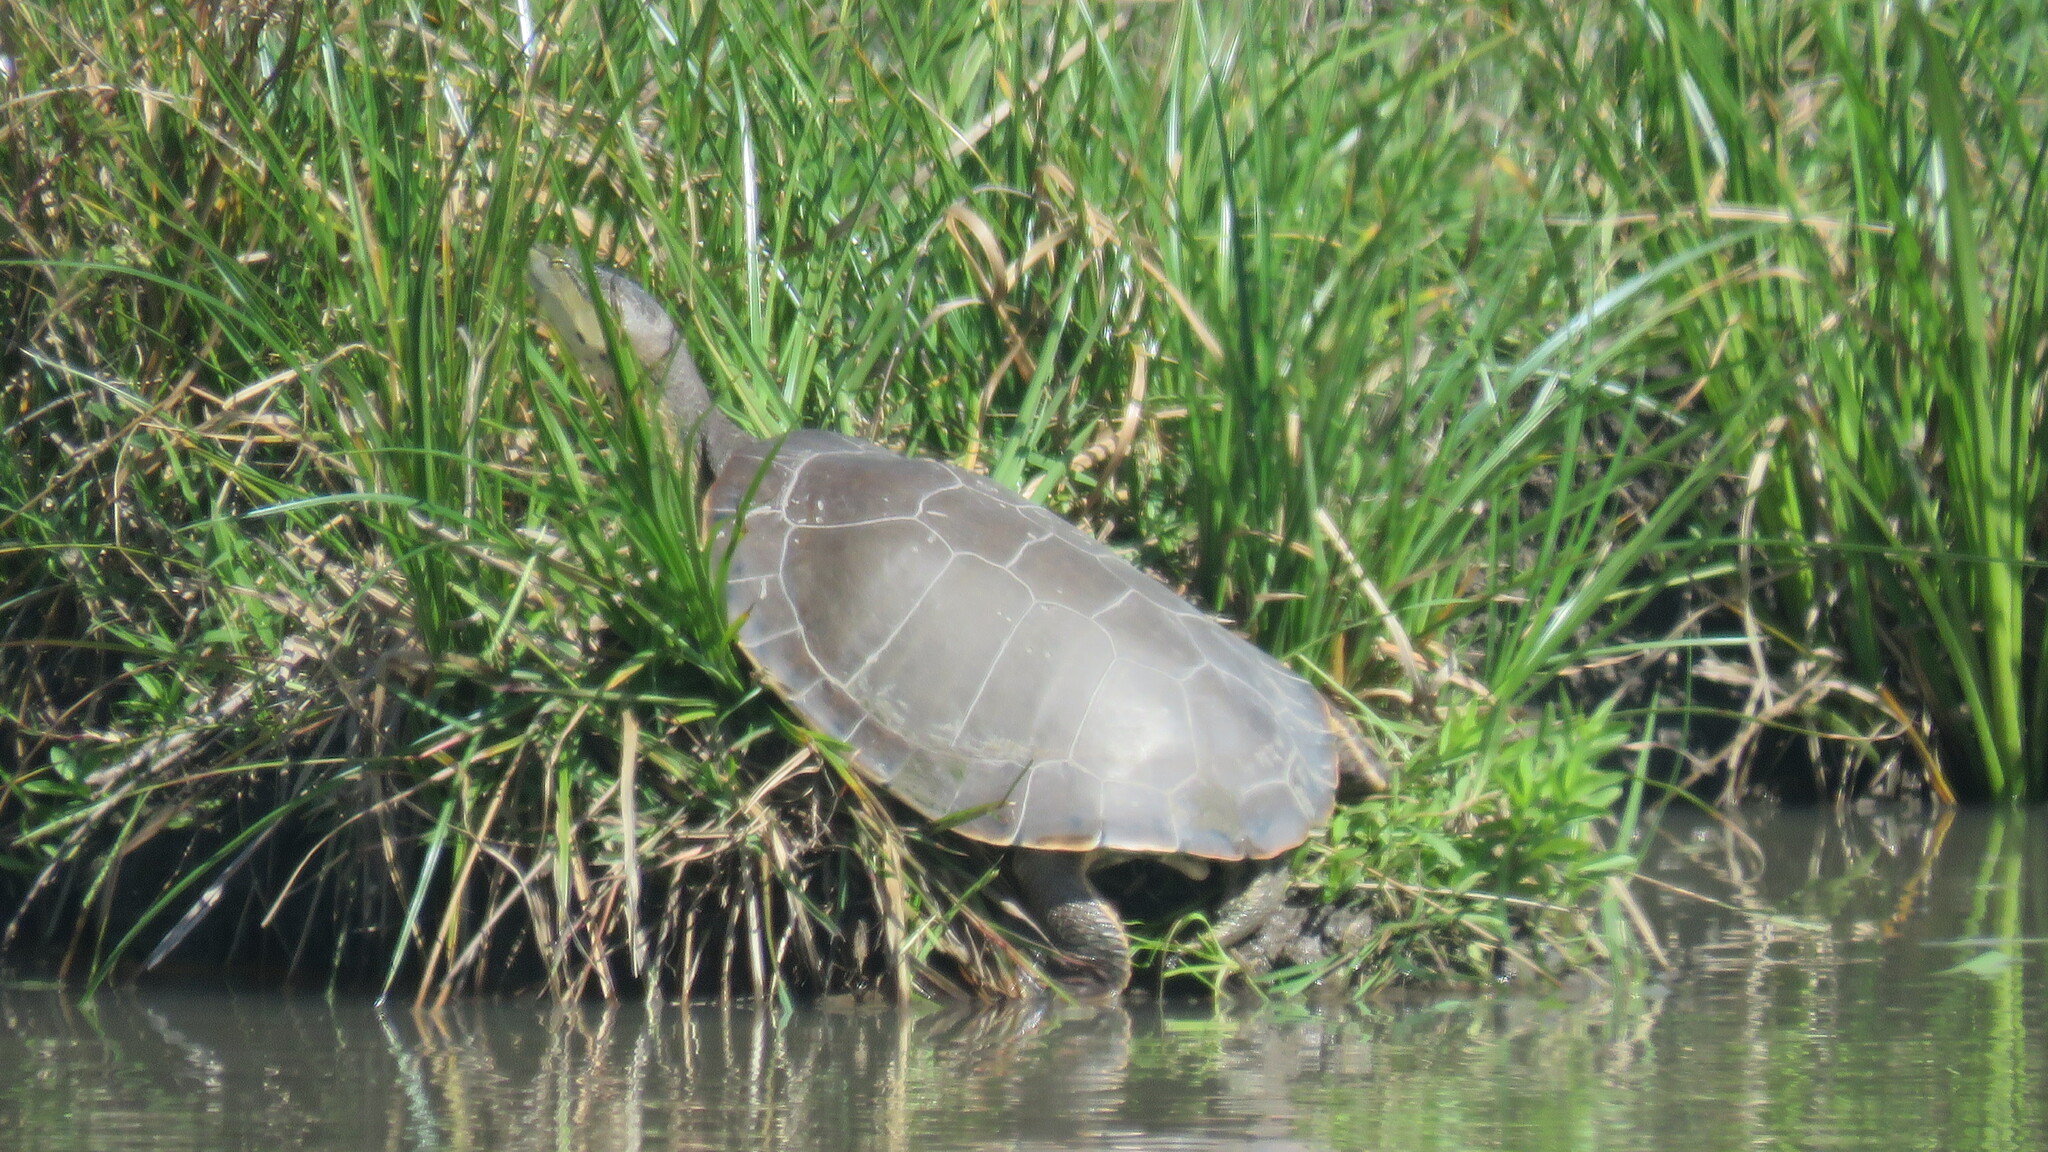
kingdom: Animalia
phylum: Chordata
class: Testudines
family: Chelidae
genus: Phrynops
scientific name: Phrynops hilarii
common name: Side-necked turtle of saint hillaire
